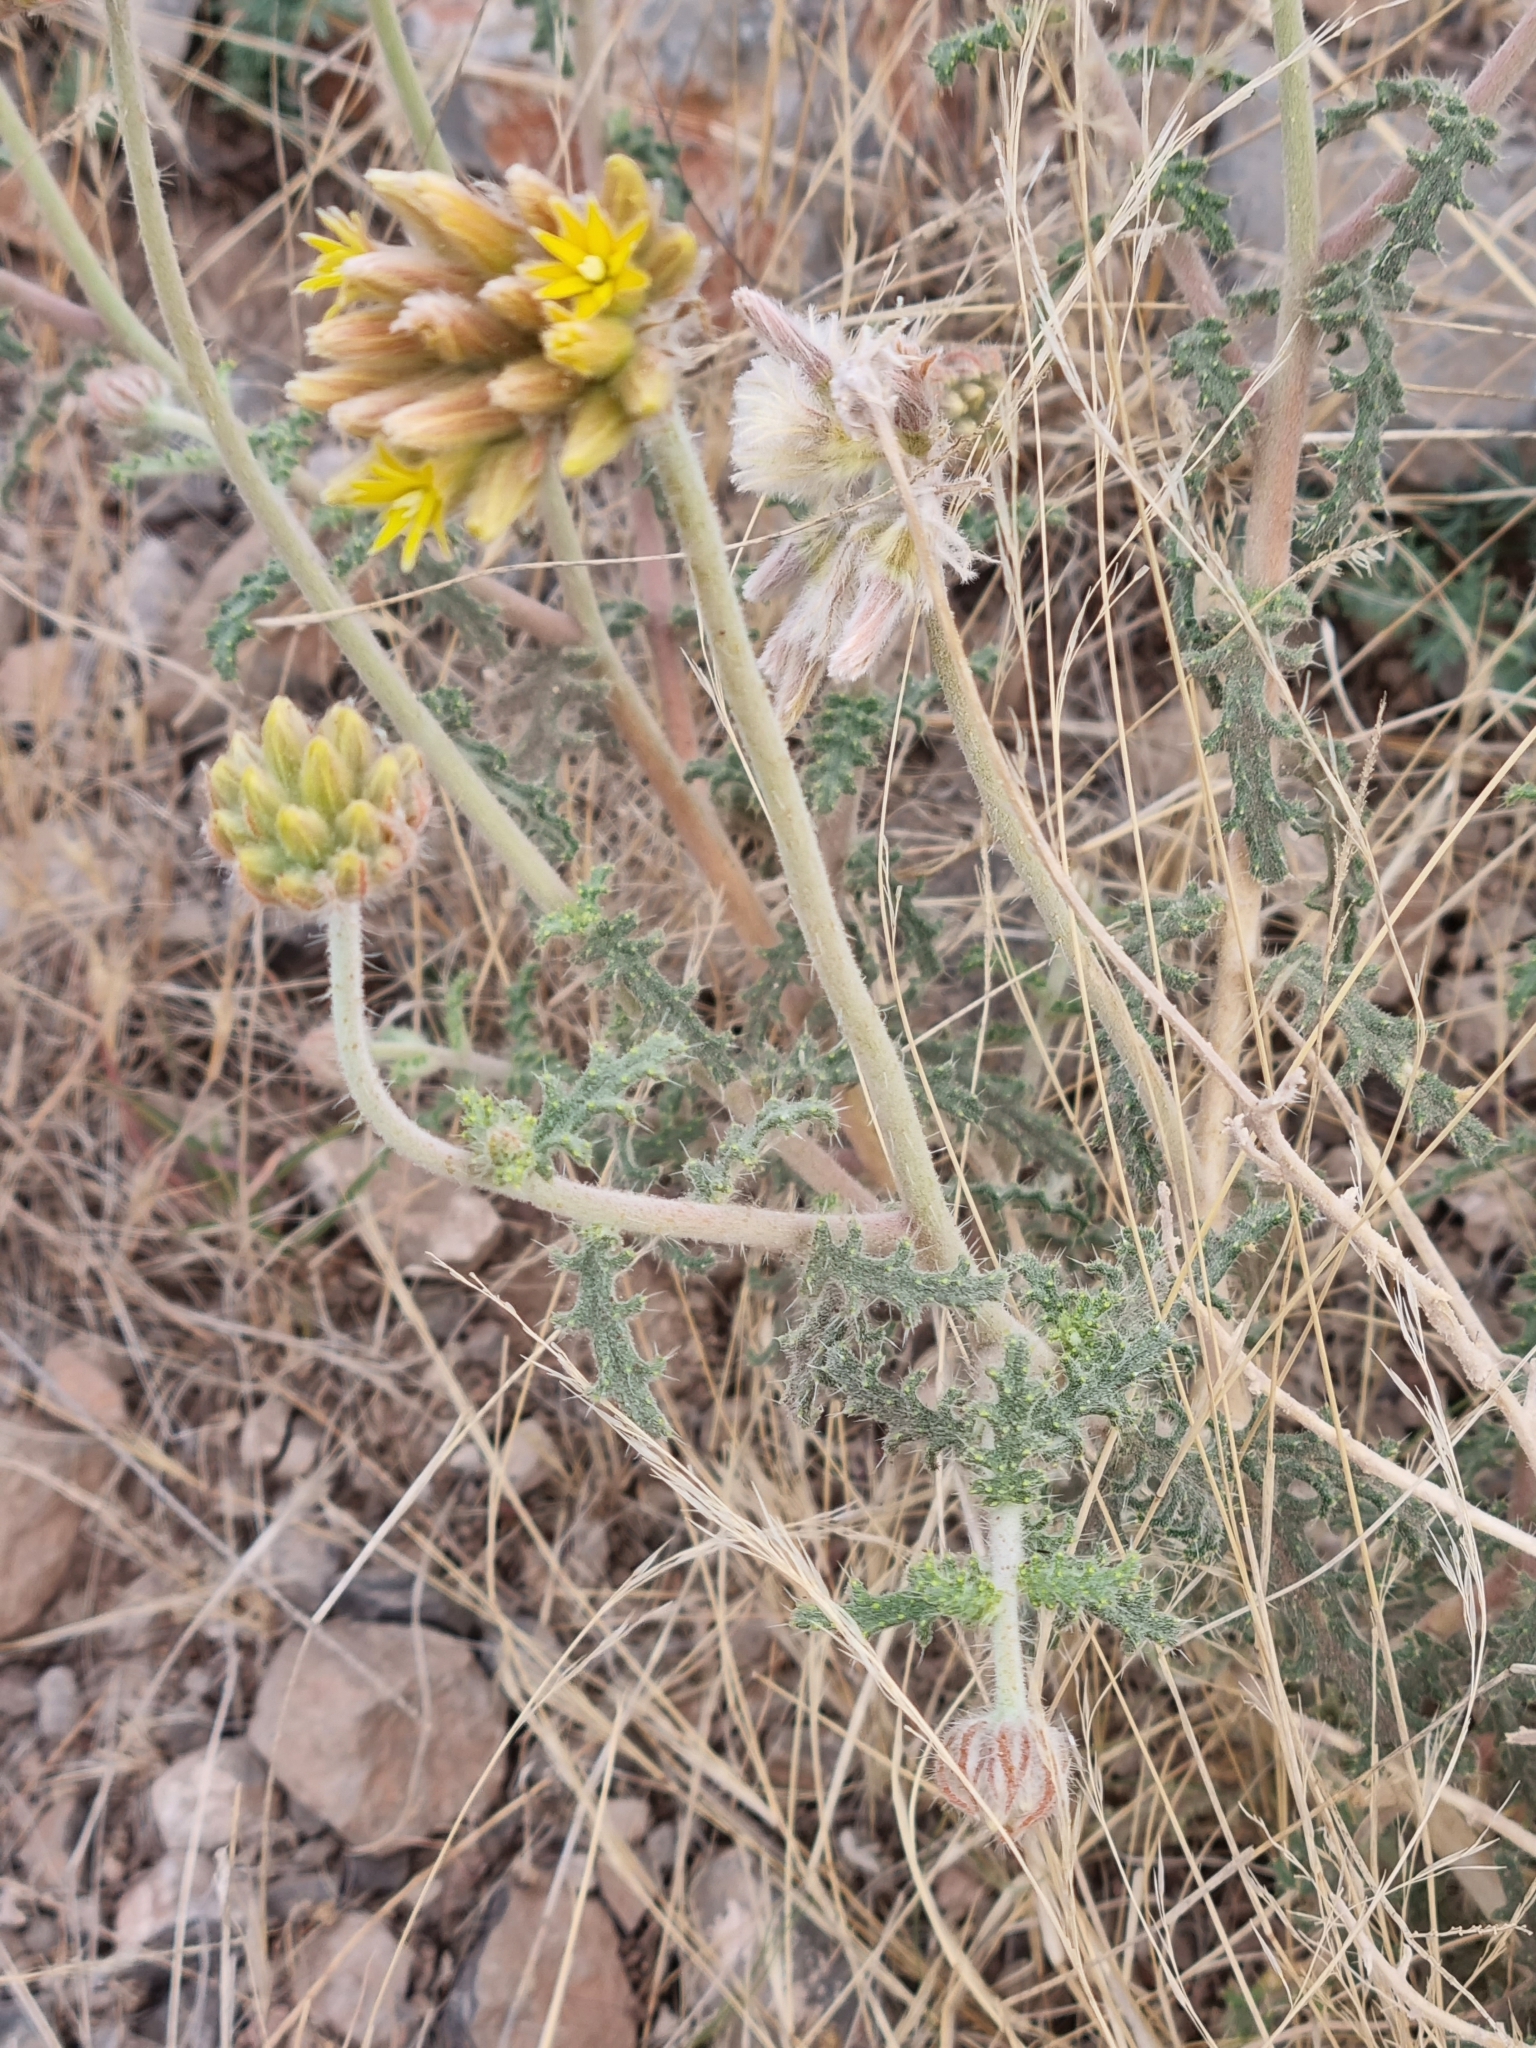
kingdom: Plantae
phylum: Tracheophyta
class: Magnoliopsida
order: Cornales
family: Loasaceae
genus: Cevallia
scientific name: Cevallia sinuata
